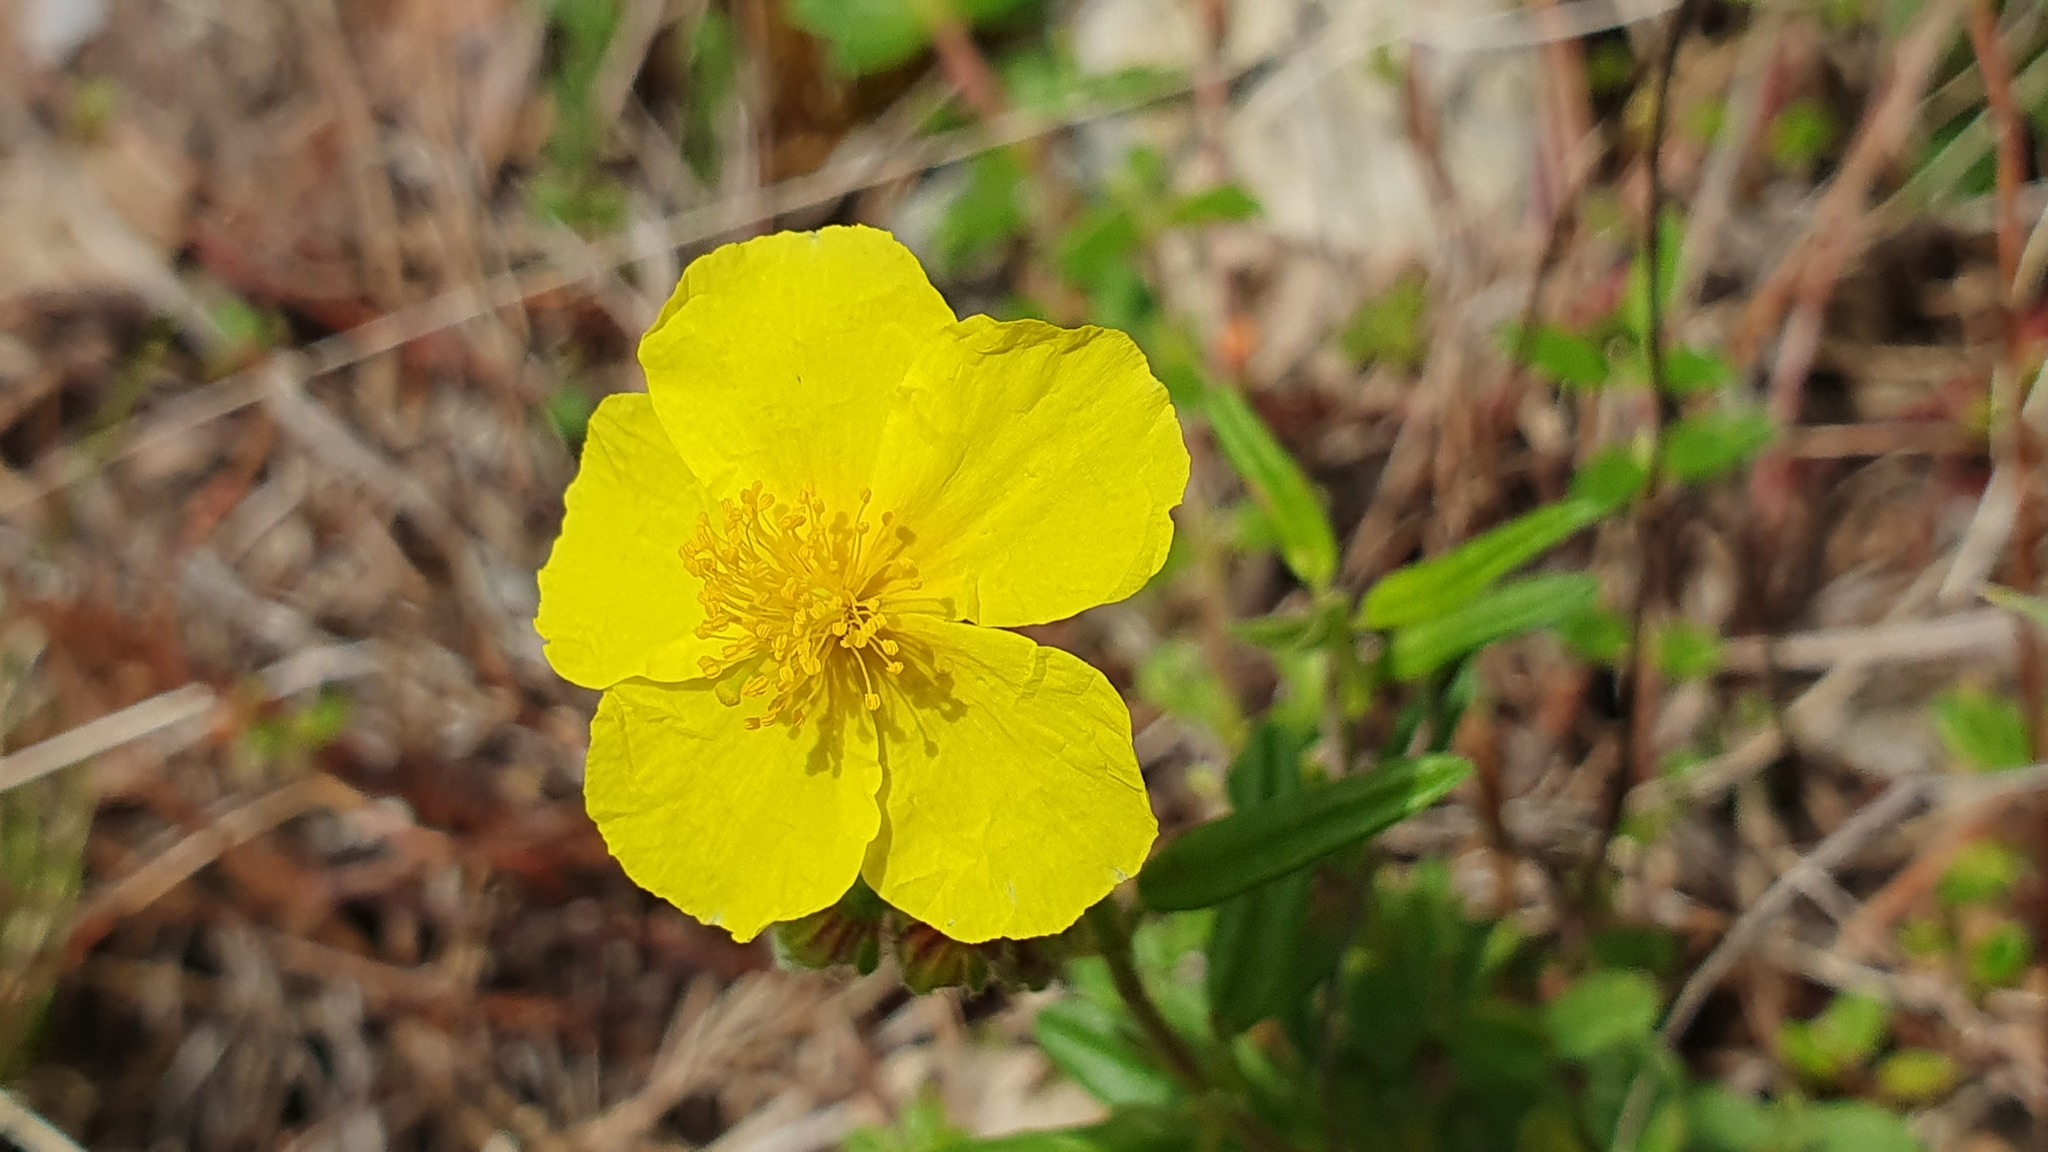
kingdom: Plantae
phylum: Tracheophyta
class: Magnoliopsida
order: Malvales
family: Cistaceae
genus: Helianthemum
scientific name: Helianthemum nummularium
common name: Common rock-rose
